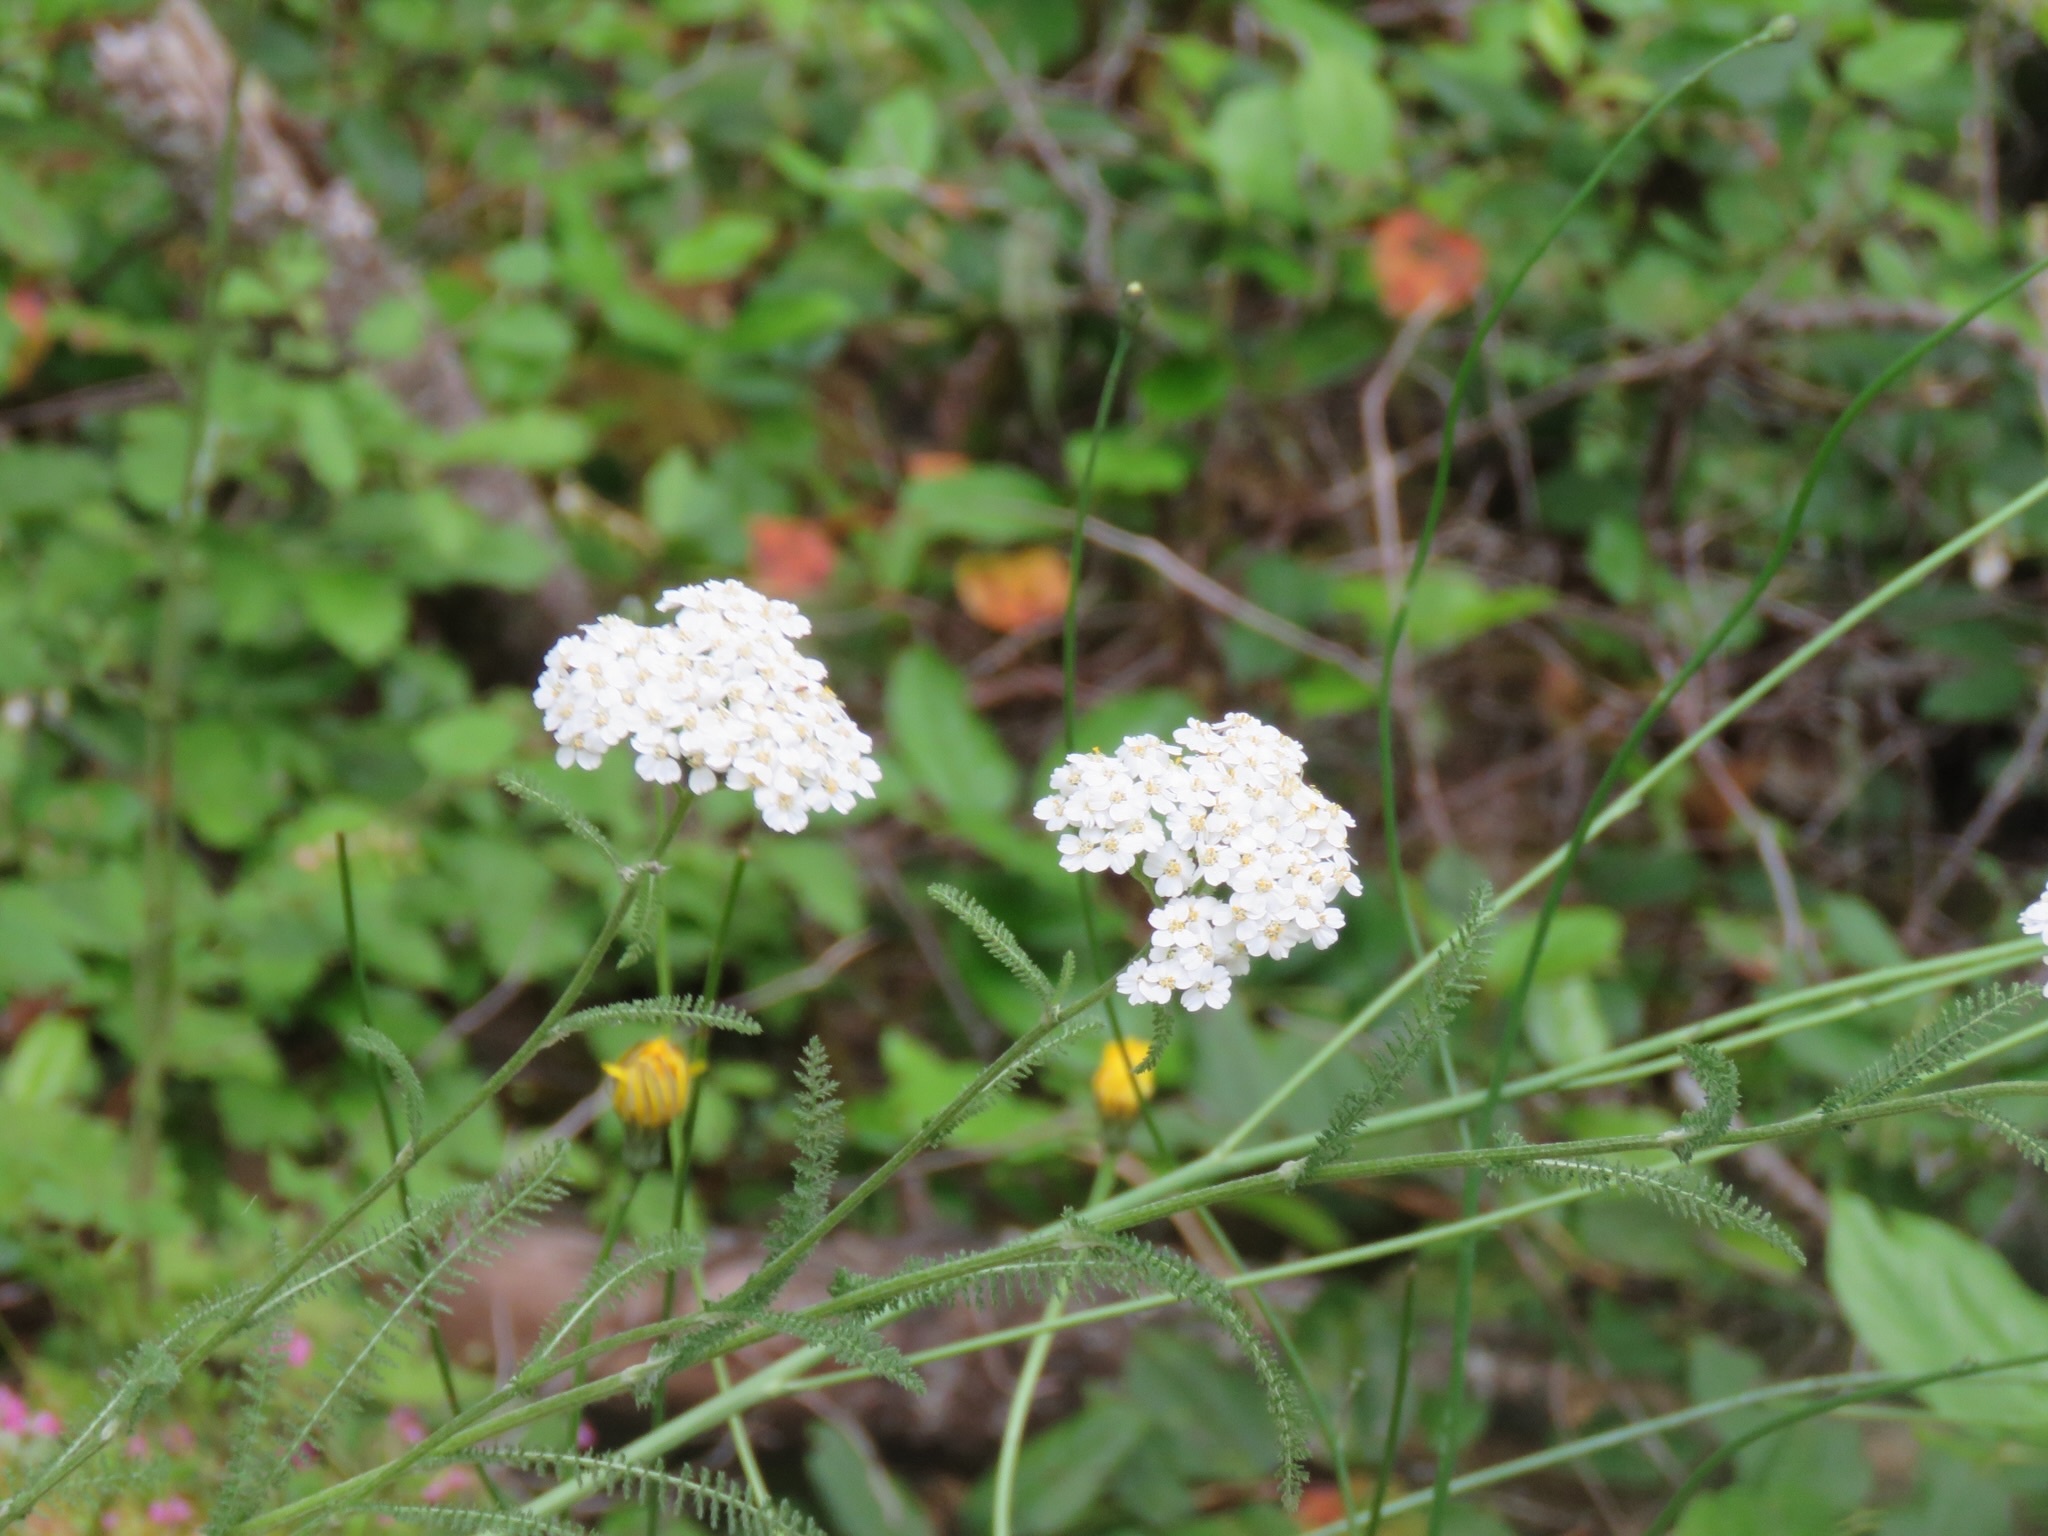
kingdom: Plantae
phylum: Tracheophyta
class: Magnoliopsida
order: Asterales
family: Asteraceae
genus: Achillea
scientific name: Achillea millefolium
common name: Yarrow
